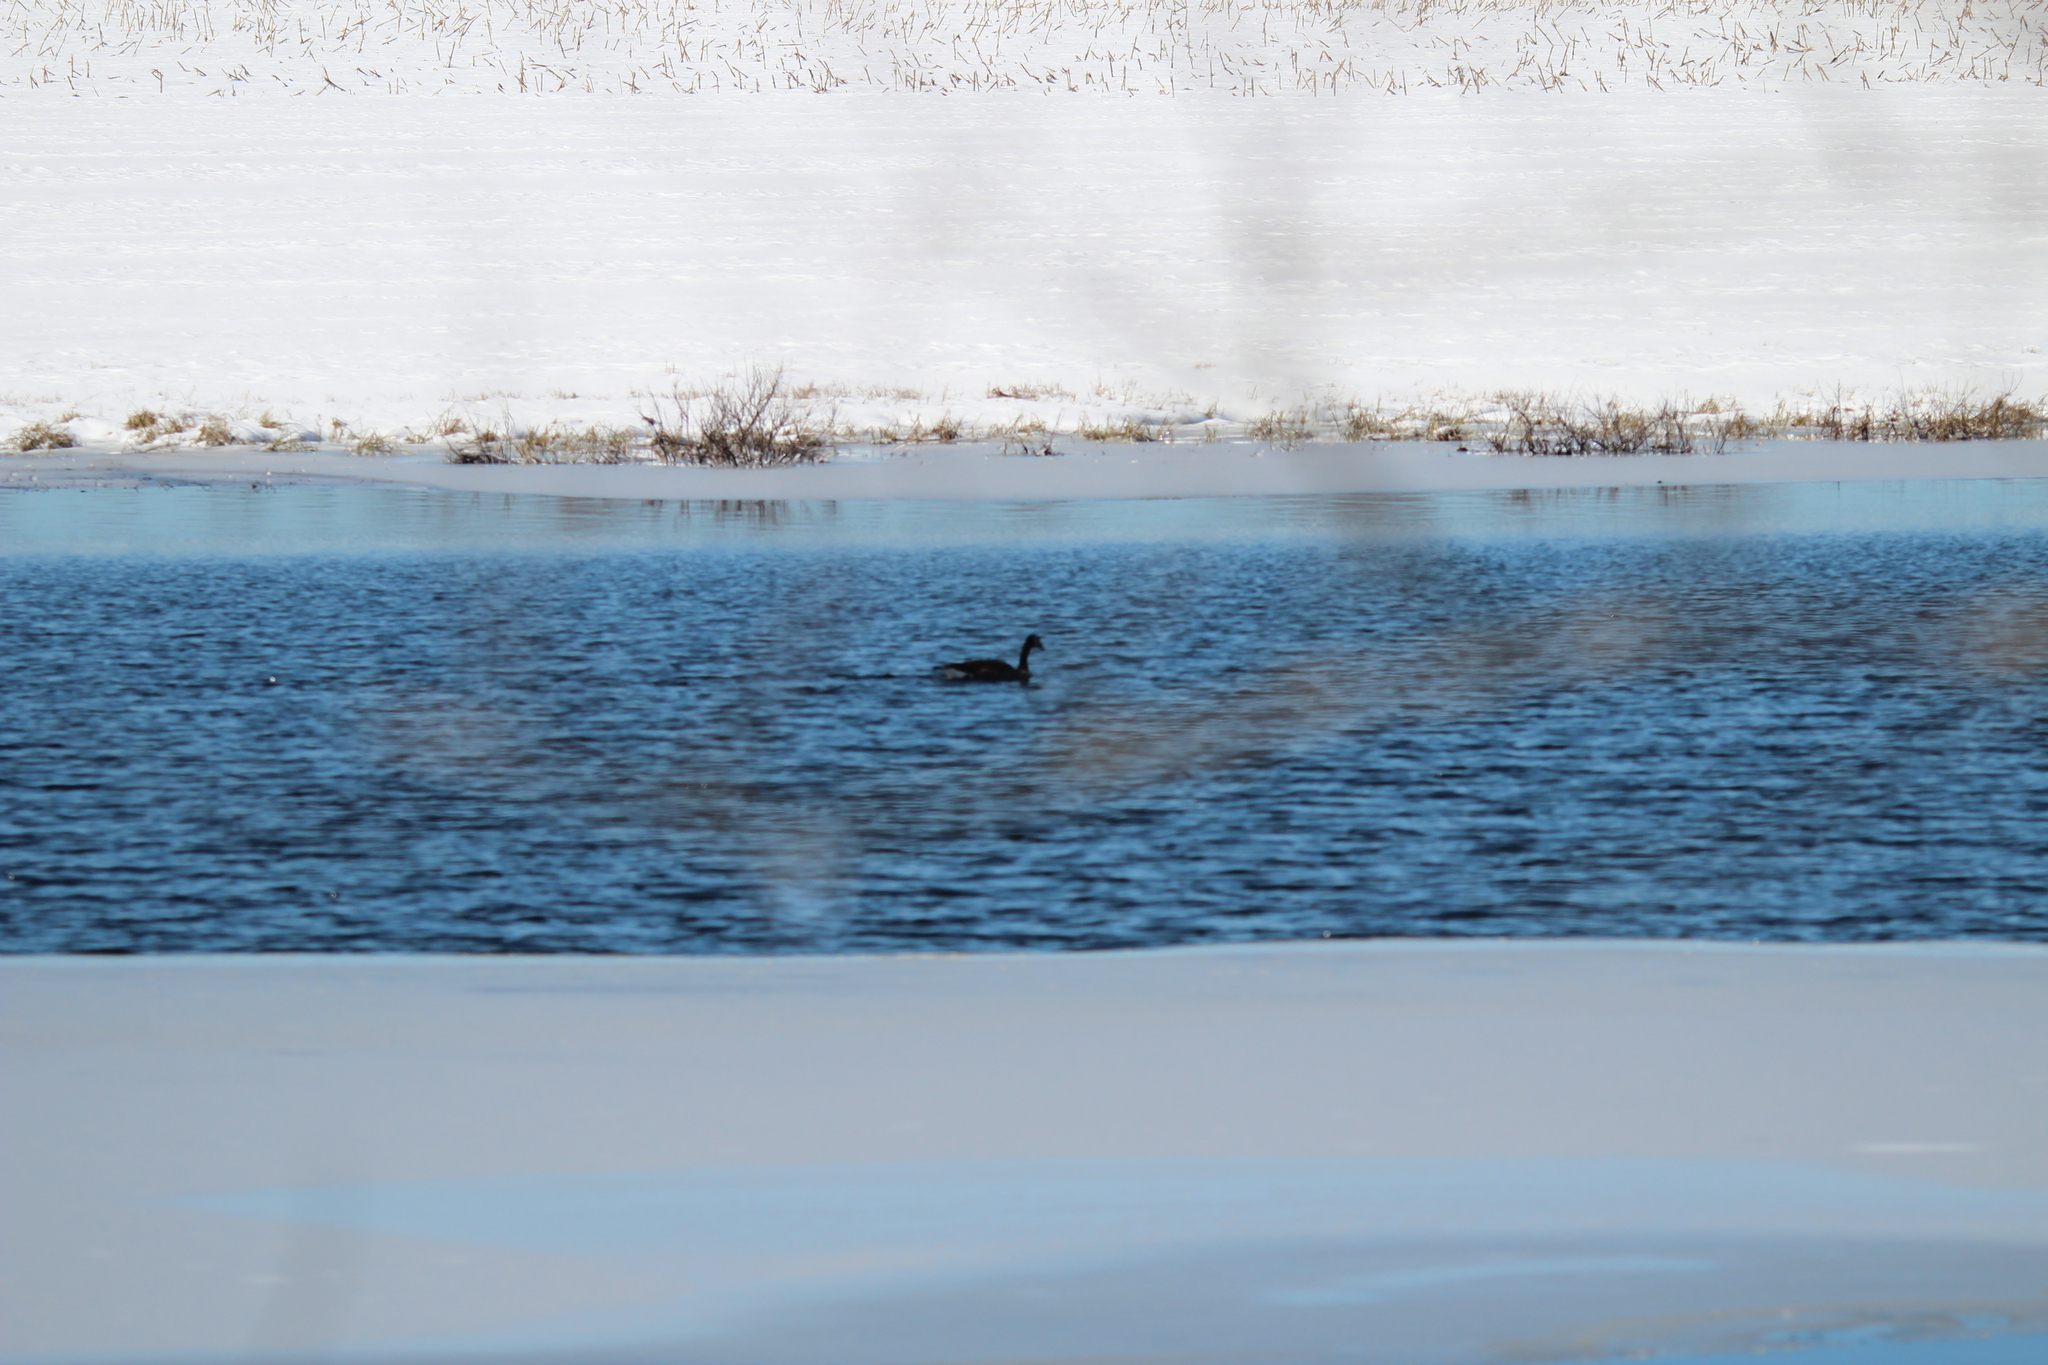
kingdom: Animalia
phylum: Chordata
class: Aves
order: Anseriformes
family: Anatidae
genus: Branta
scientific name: Branta canadensis
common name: Canada goose
